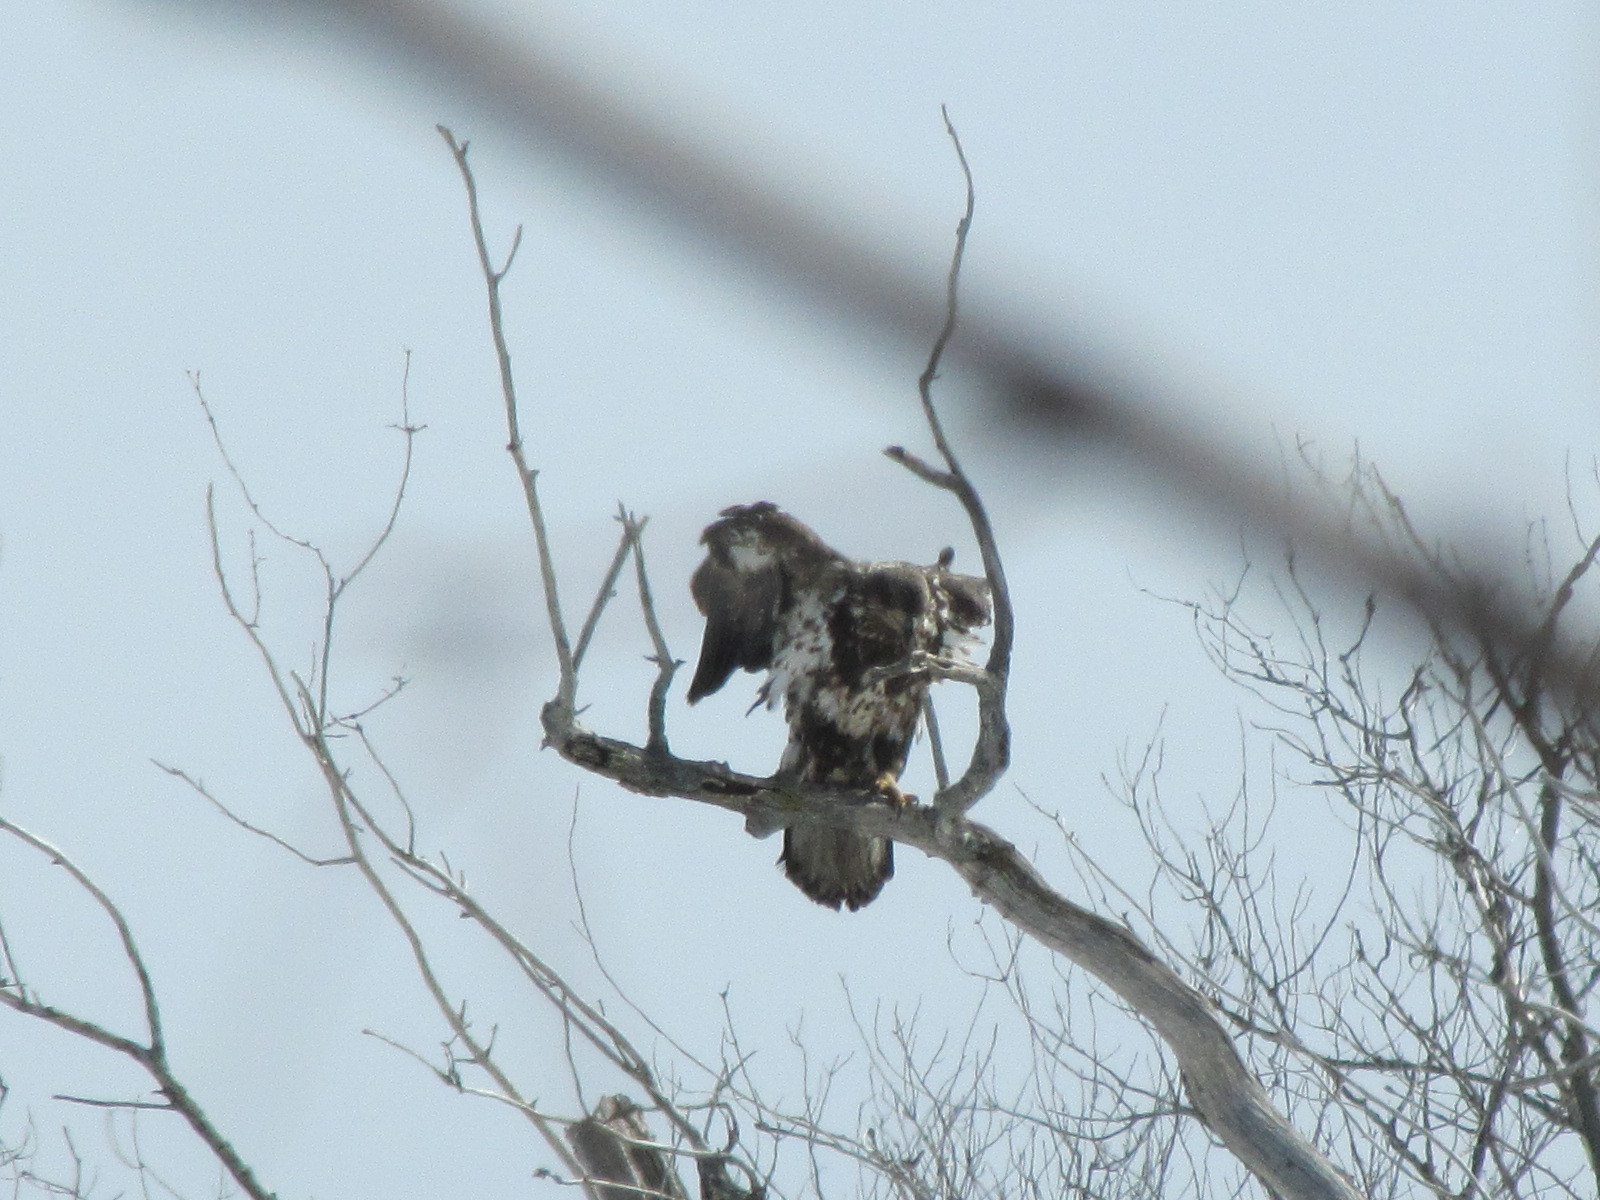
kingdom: Animalia
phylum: Chordata
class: Aves
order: Accipitriformes
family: Accipitridae
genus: Haliaeetus
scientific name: Haliaeetus leucocephalus
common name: Bald eagle
